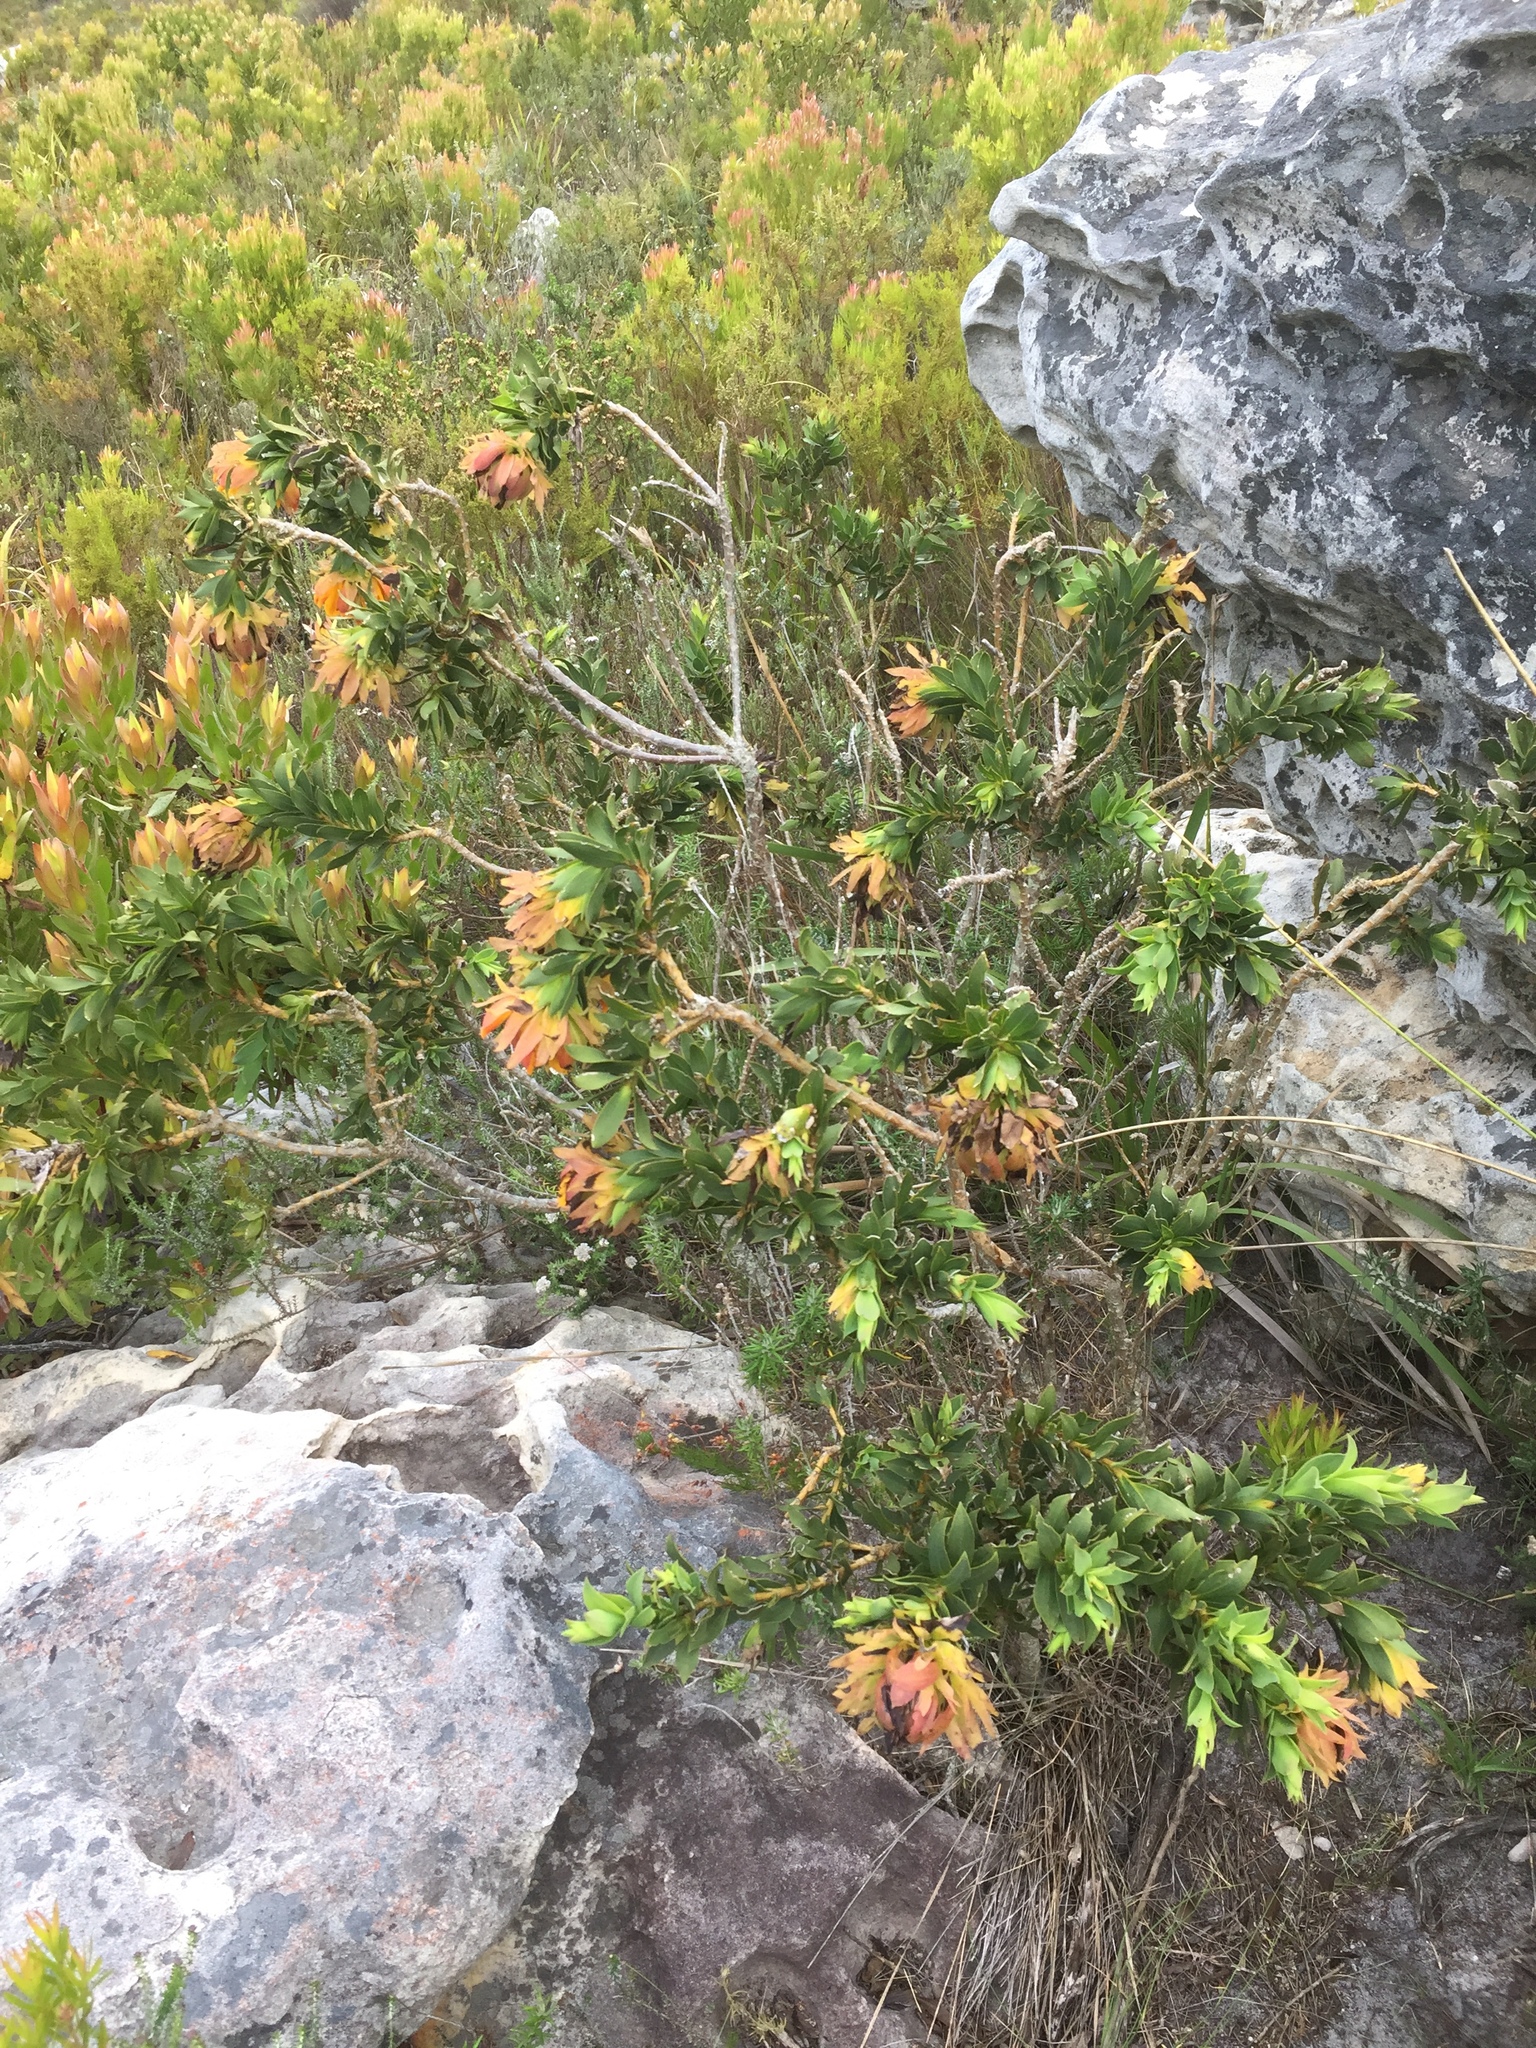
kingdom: Plantae
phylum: Tracheophyta
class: Magnoliopsida
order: Fabales
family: Fabaceae
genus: Liparia
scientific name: Liparia splendens
